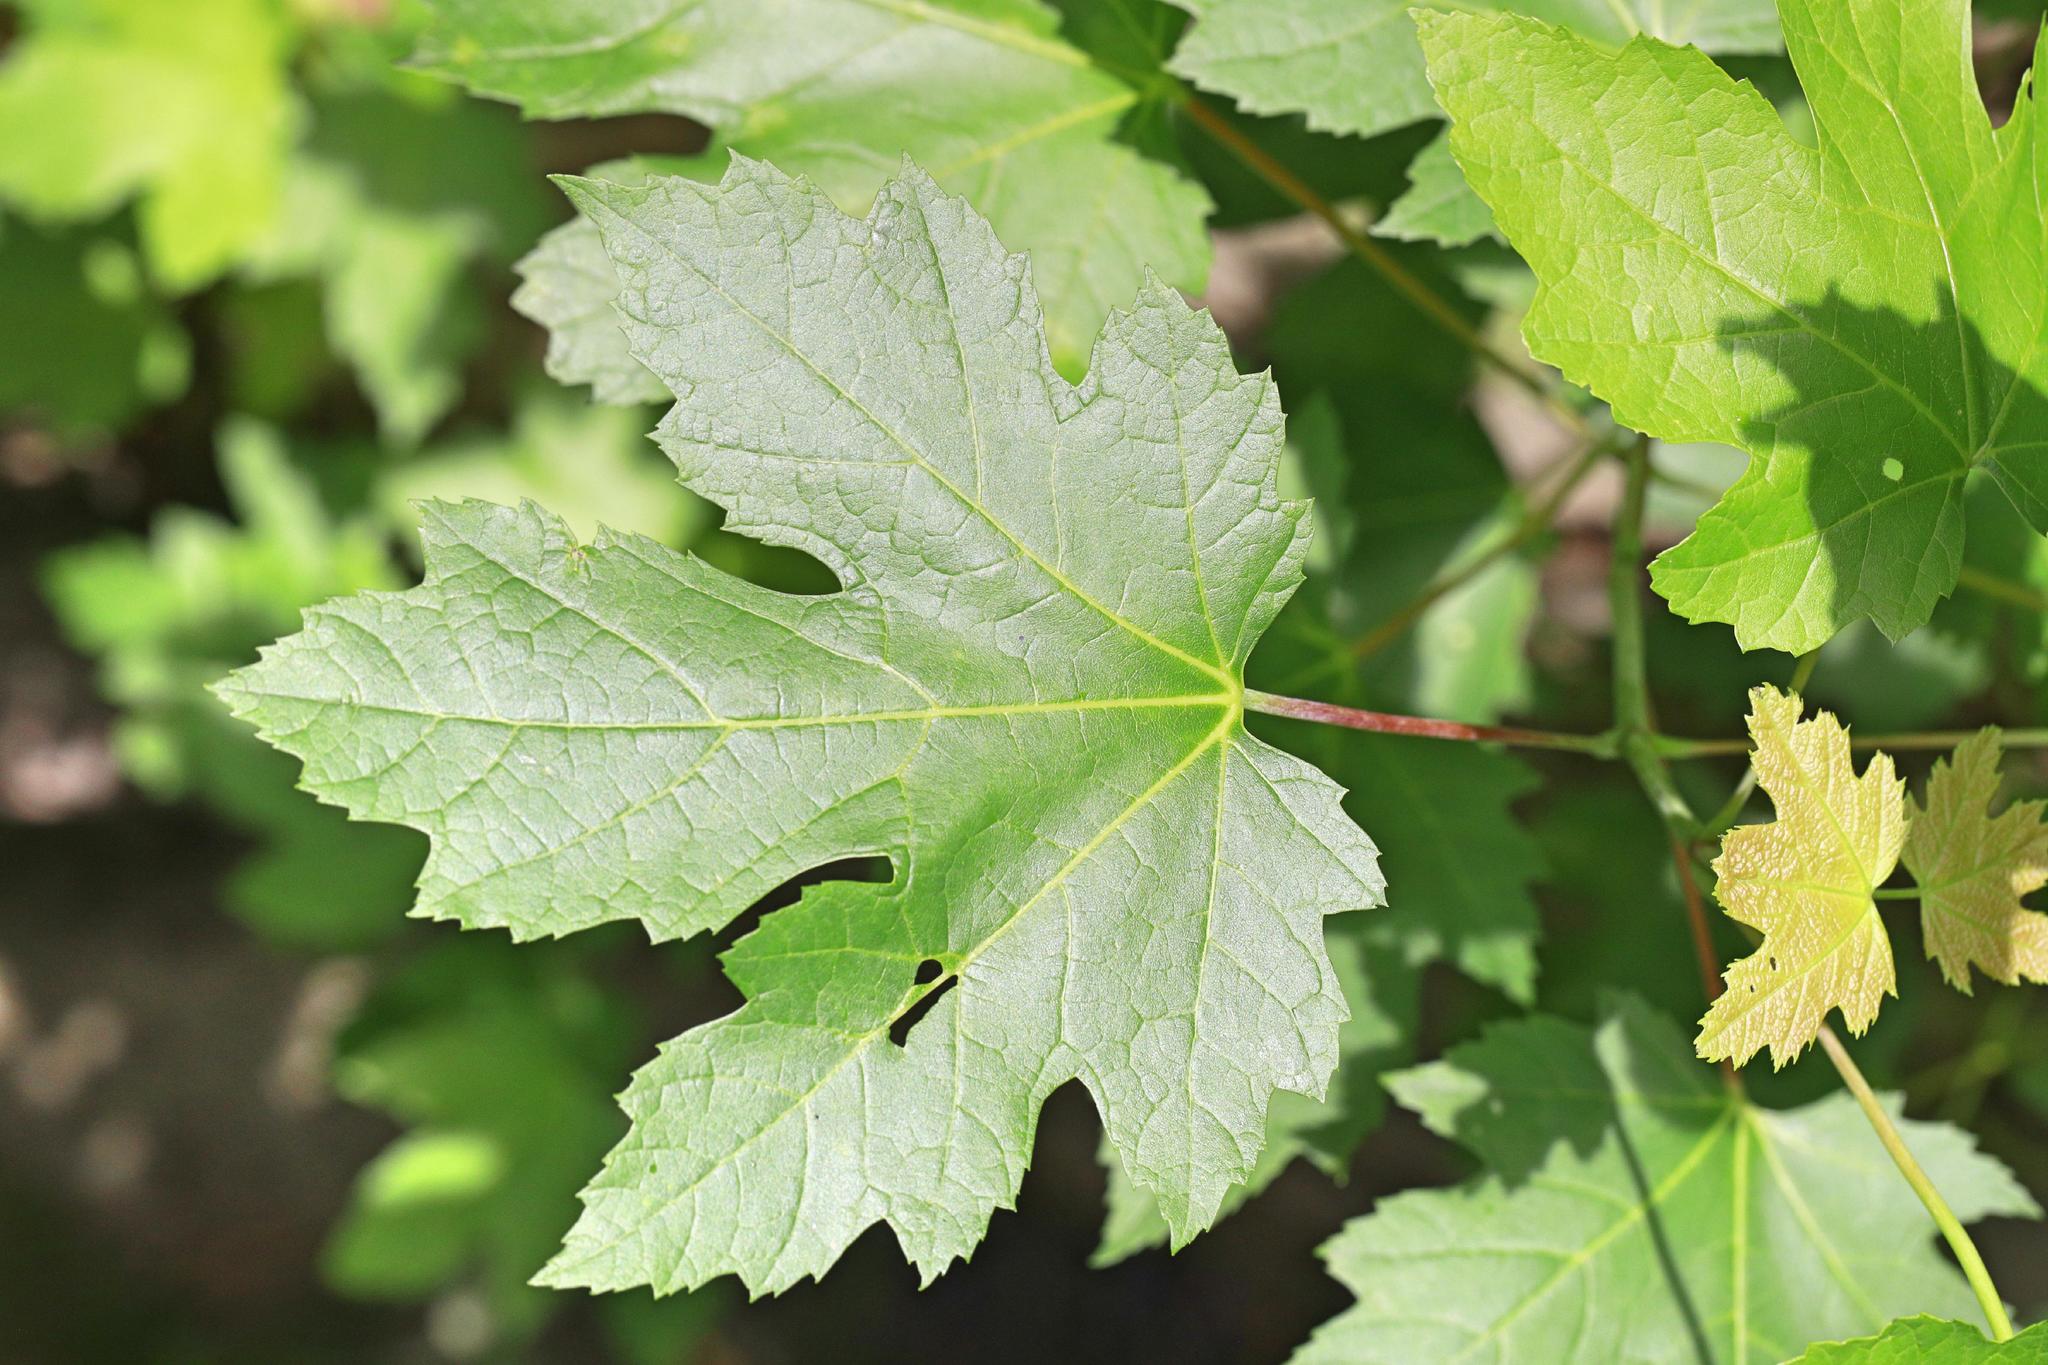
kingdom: Plantae
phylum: Tracheophyta
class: Magnoliopsida
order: Sapindales
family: Sapindaceae
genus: Acer
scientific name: Acer saccharinum
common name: Silver maple
